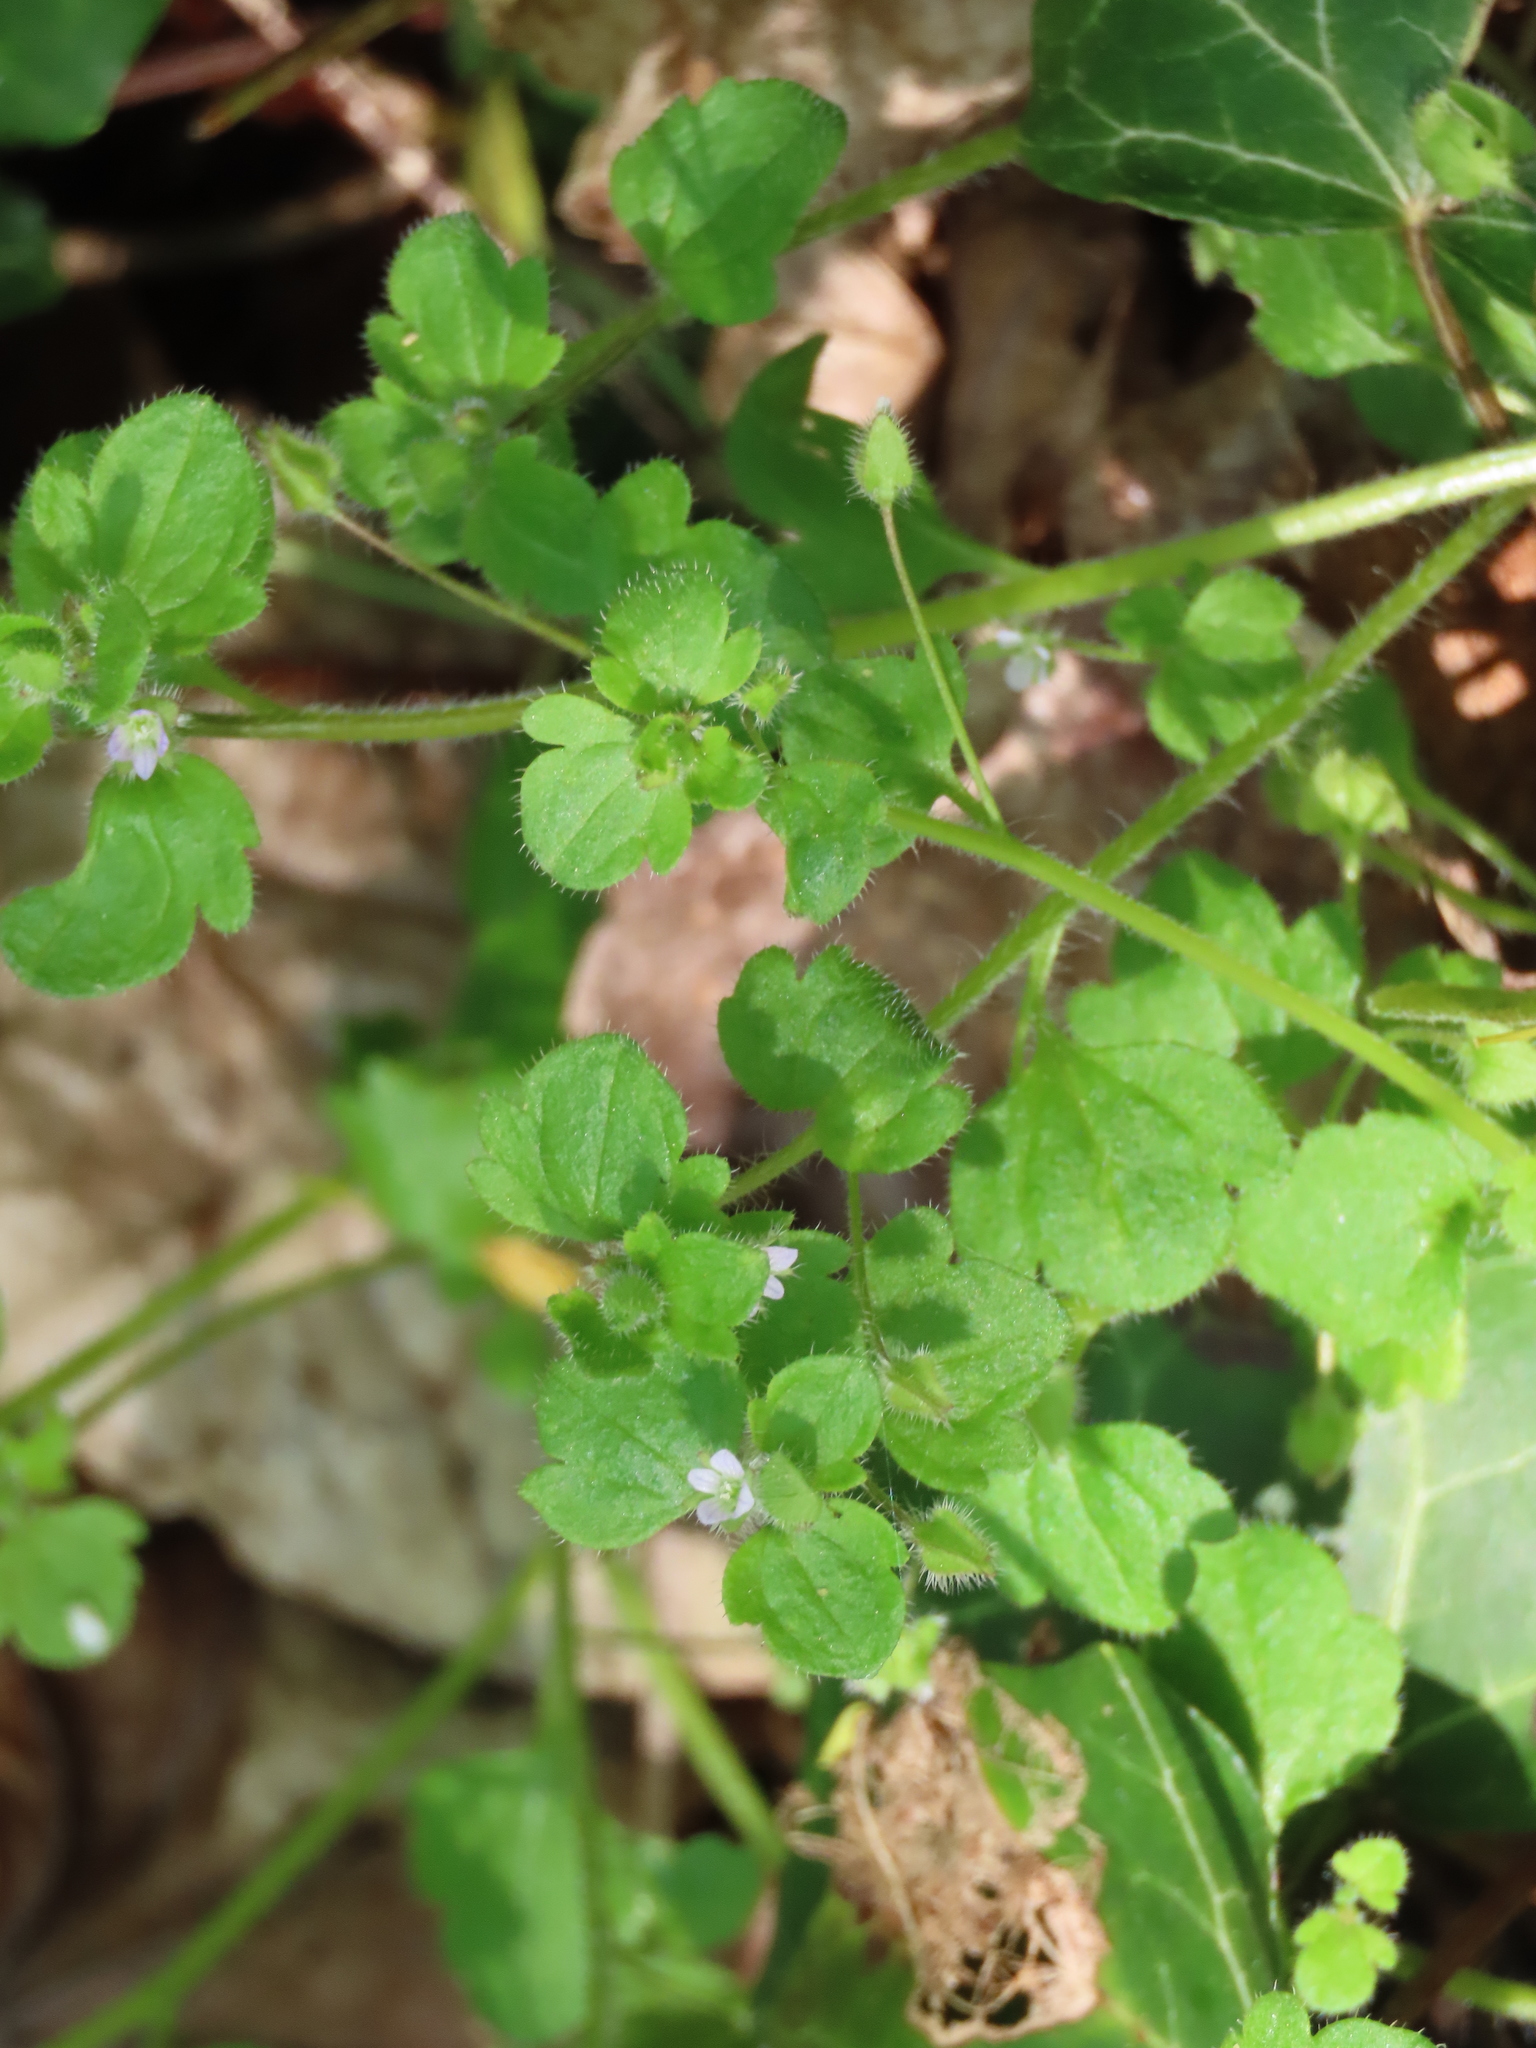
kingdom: Plantae
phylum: Tracheophyta
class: Magnoliopsida
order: Lamiales
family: Plantaginaceae
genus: Veronica
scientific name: Veronica sublobata
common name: False ivy-leaved speedwell
